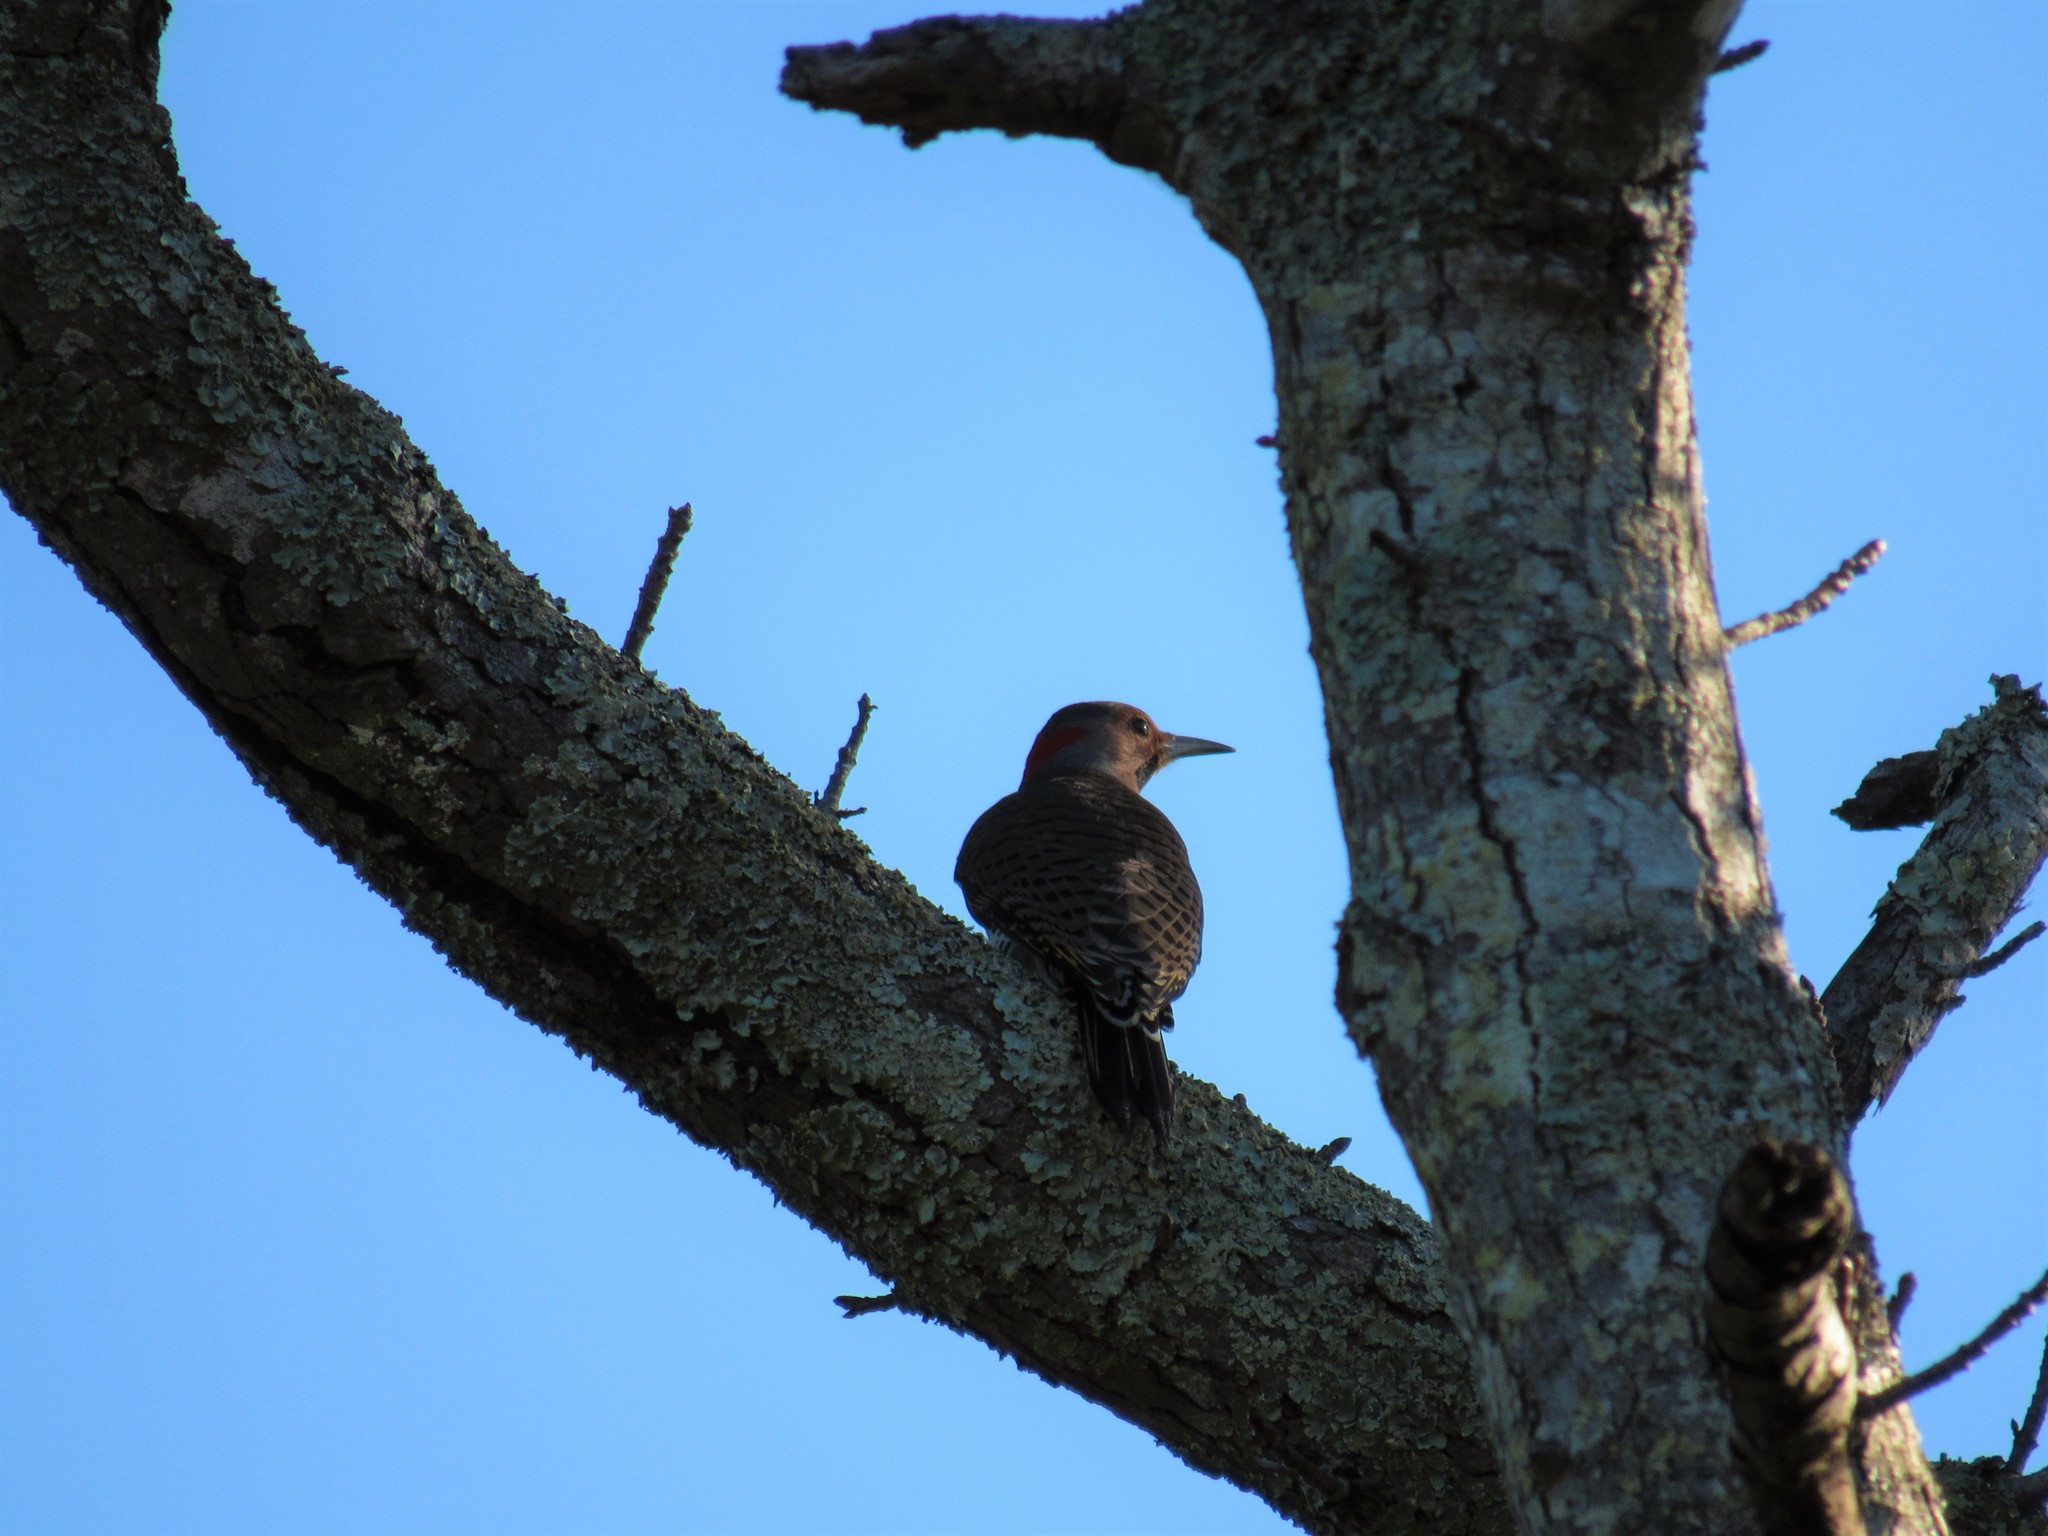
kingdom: Animalia
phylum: Chordata
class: Aves
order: Piciformes
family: Picidae
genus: Colaptes
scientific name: Colaptes auratus
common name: Northern flicker
